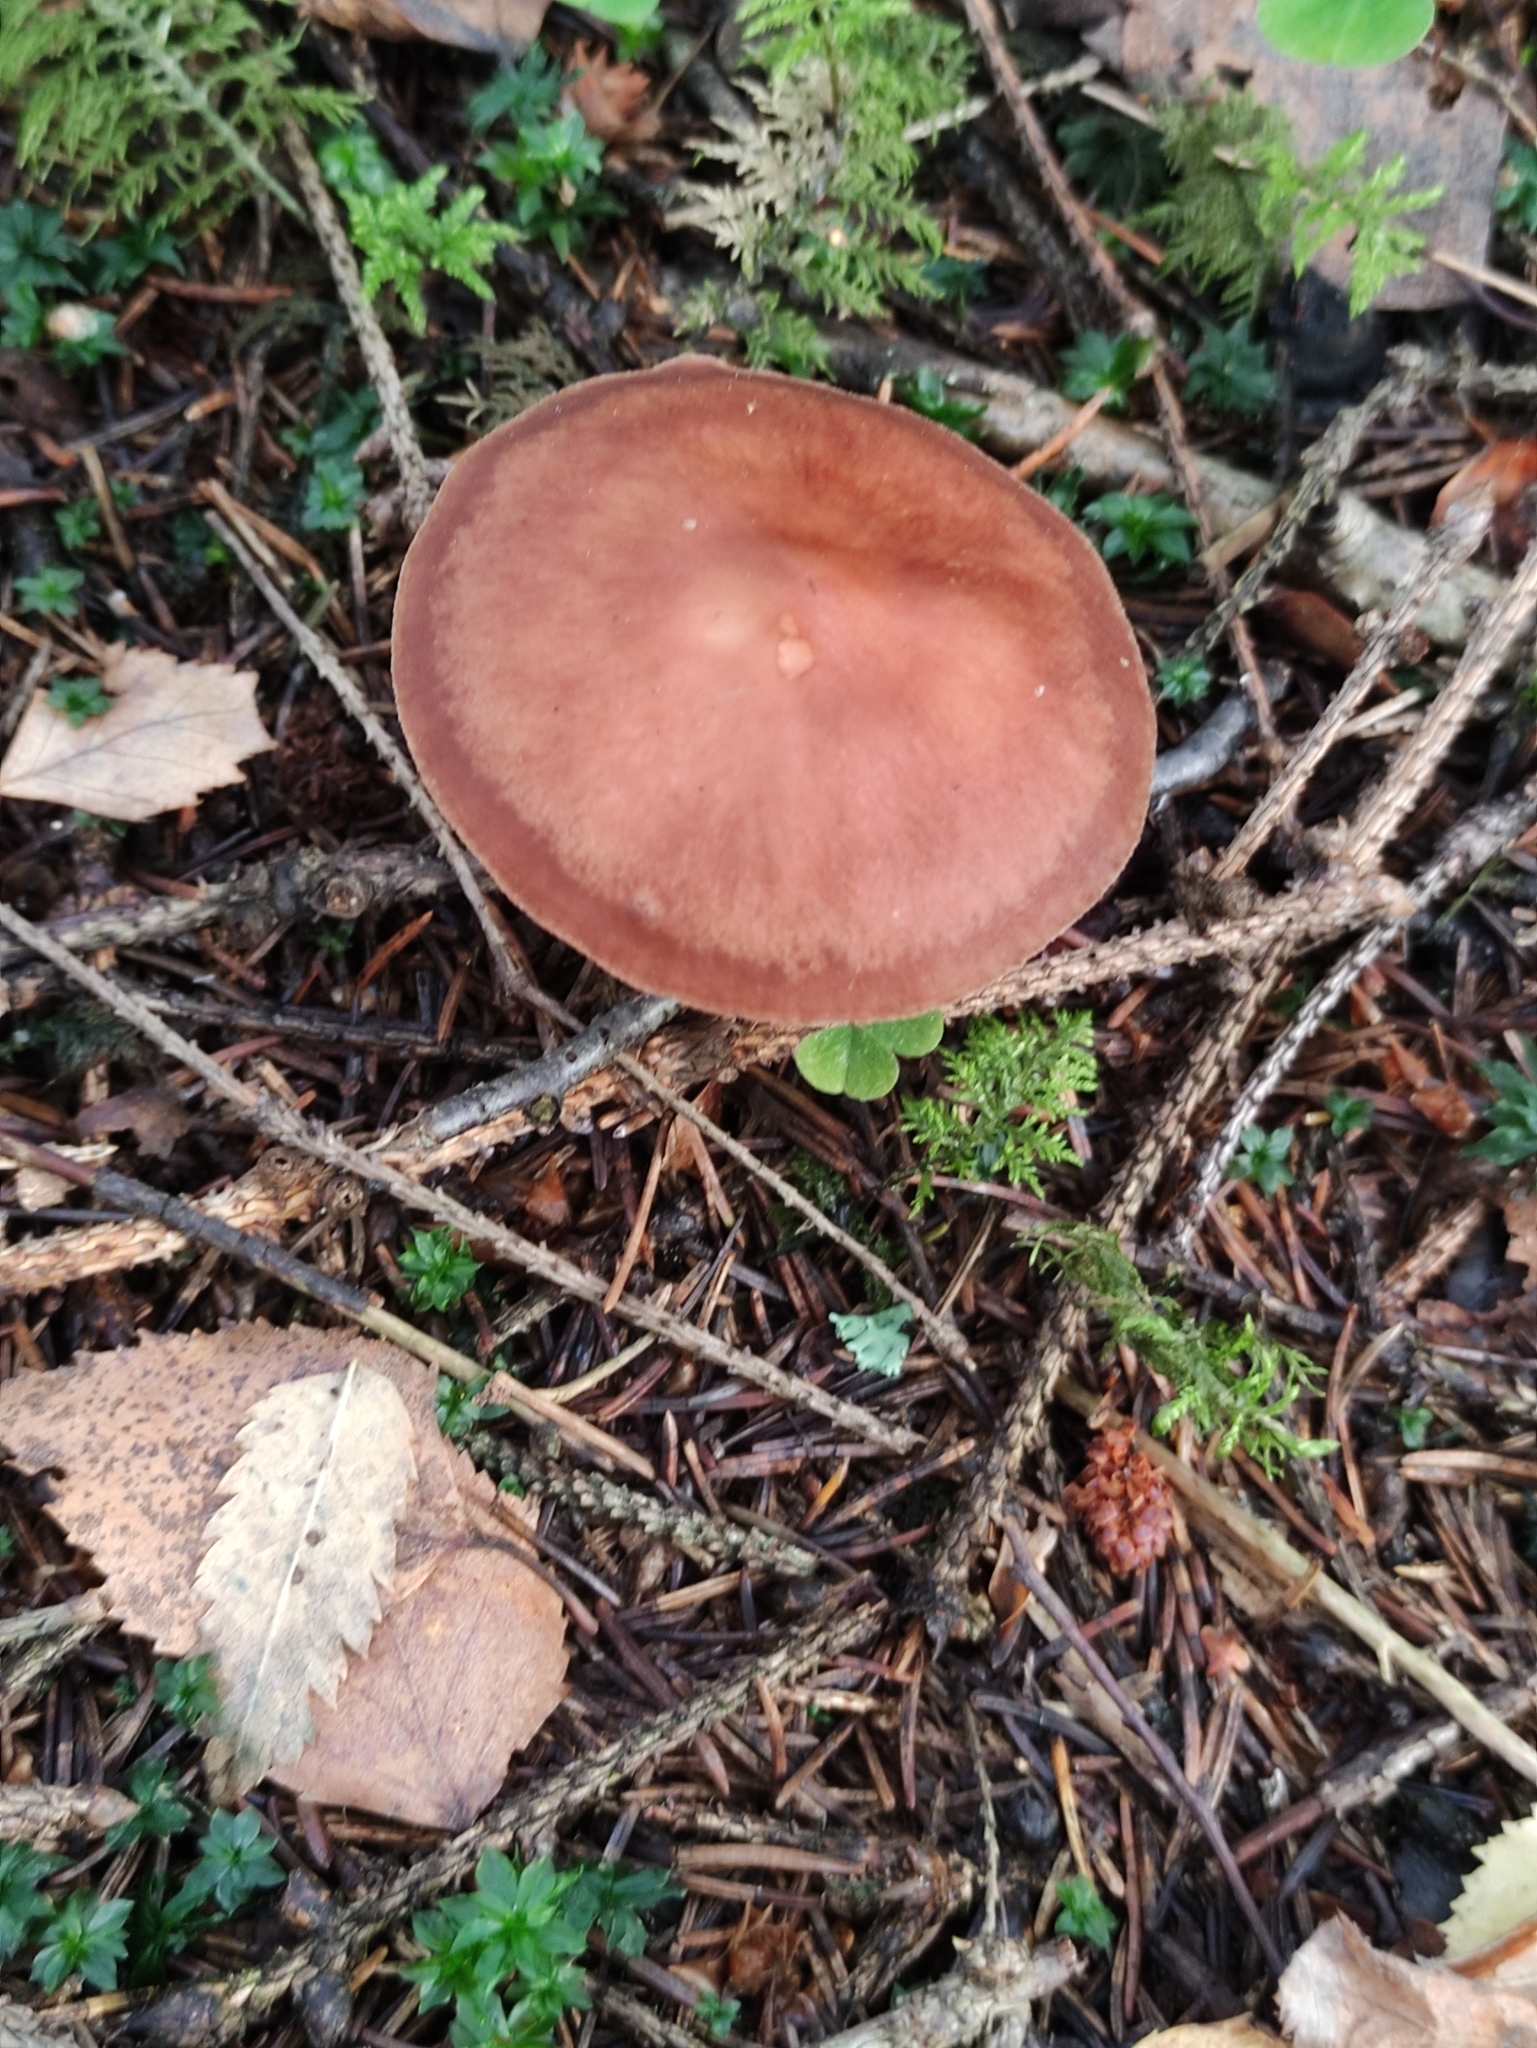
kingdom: Fungi
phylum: Basidiomycota
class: Agaricomycetes
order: Agaricales
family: Omphalotaceae
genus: Rhodocollybia
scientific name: Rhodocollybia prolixa
